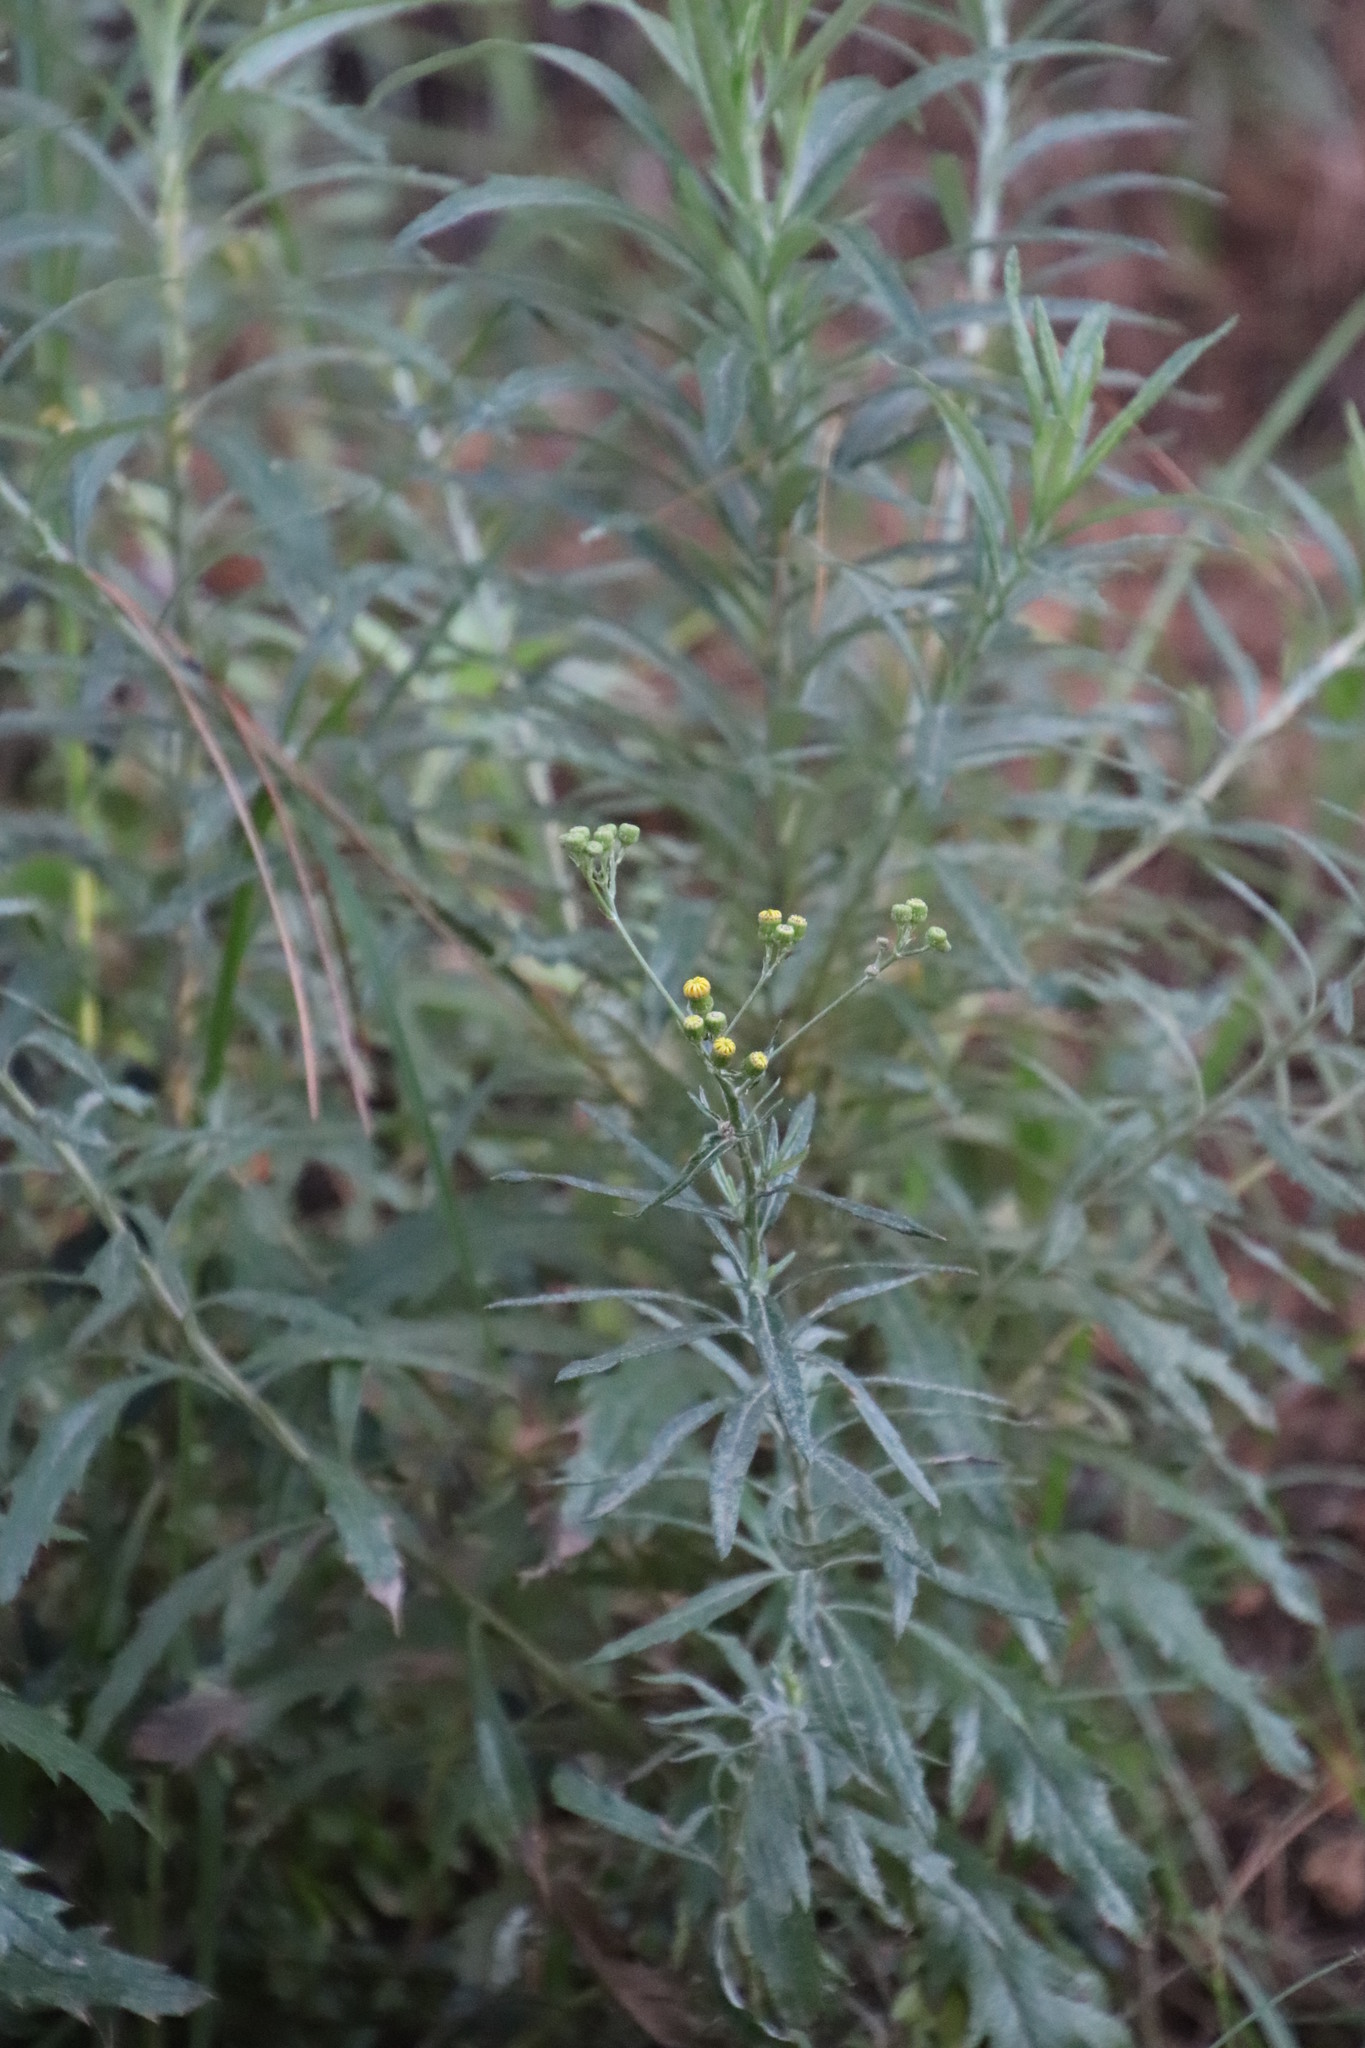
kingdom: Plantae
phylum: Tracheophyta
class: Magnoliopsida
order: Asterales
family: Asteraceae
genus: Senecio
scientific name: Senecio pterophorus
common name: Shoddy ragwort
